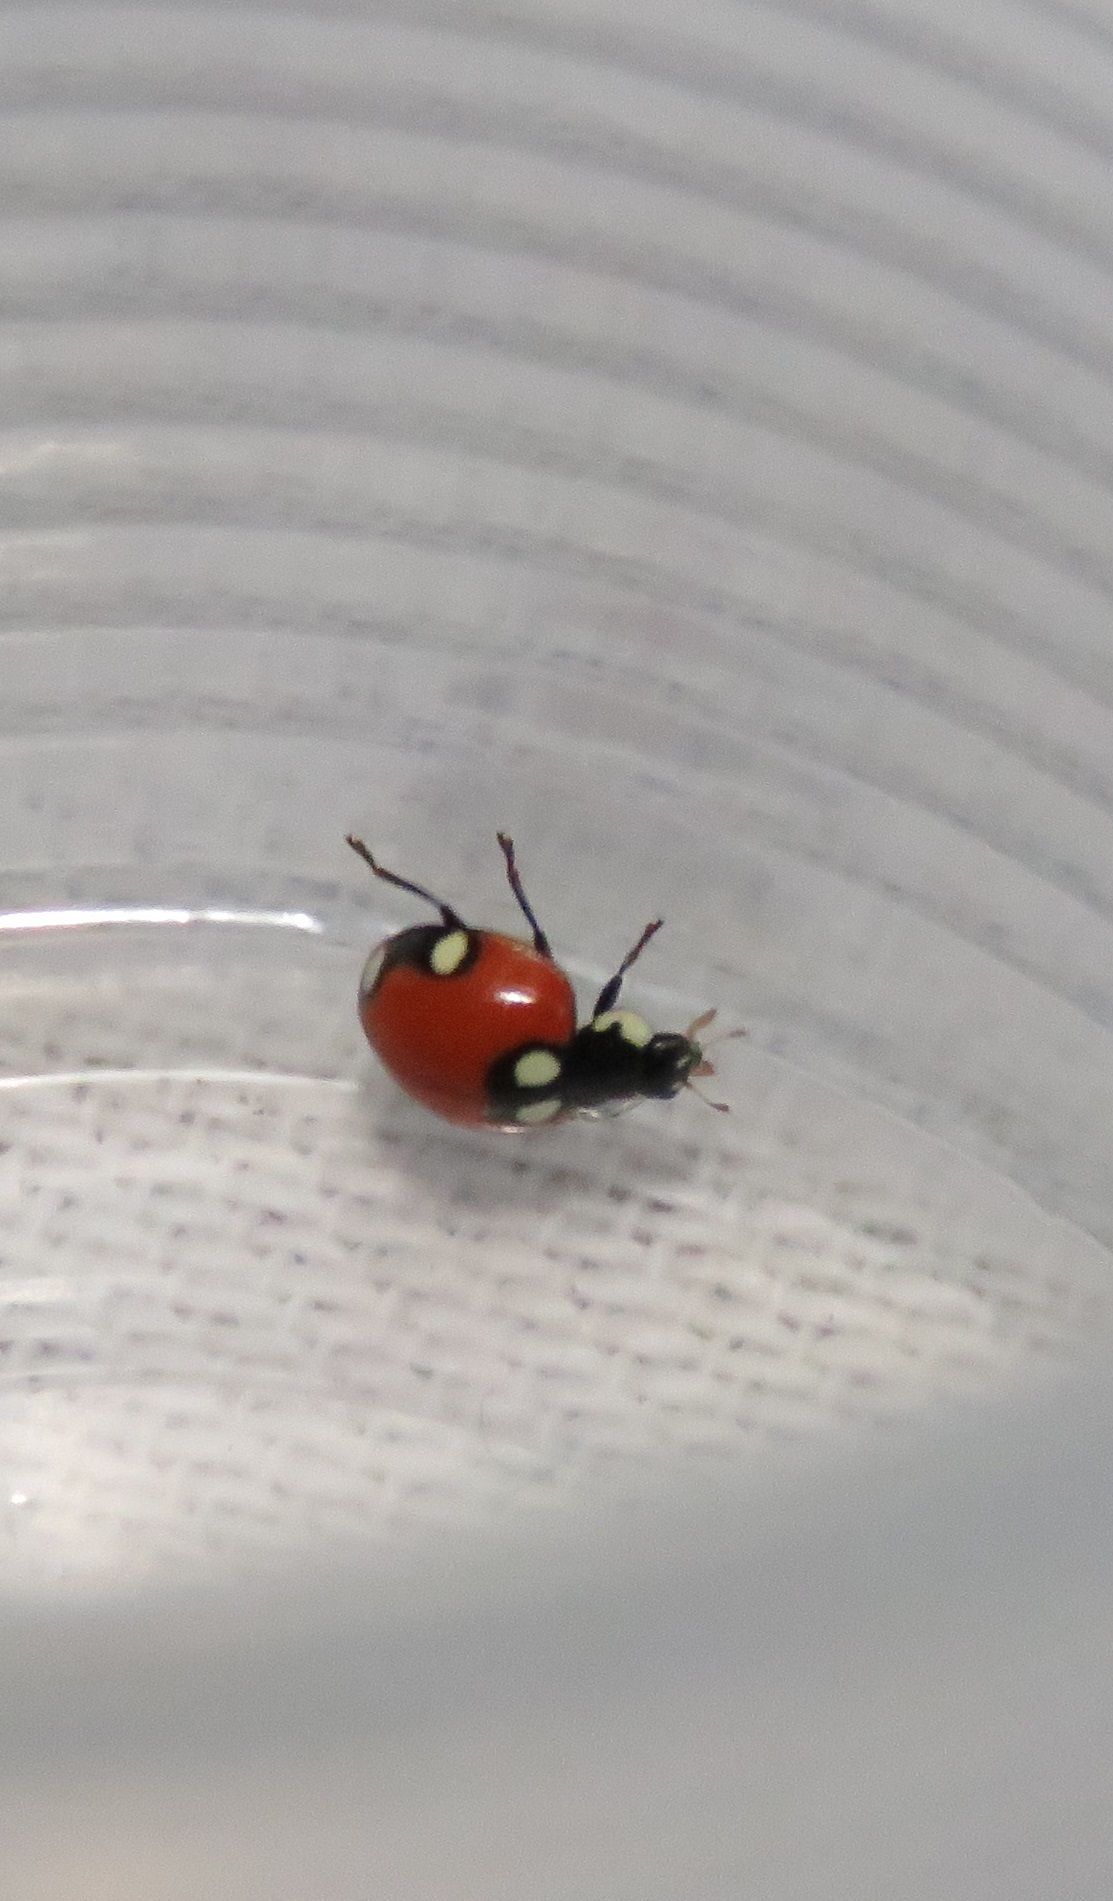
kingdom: Animalia
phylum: Arthropoda
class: Insecta
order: Coleoptera
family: Coccinellidae
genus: Cycloneda
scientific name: Cycloneda
